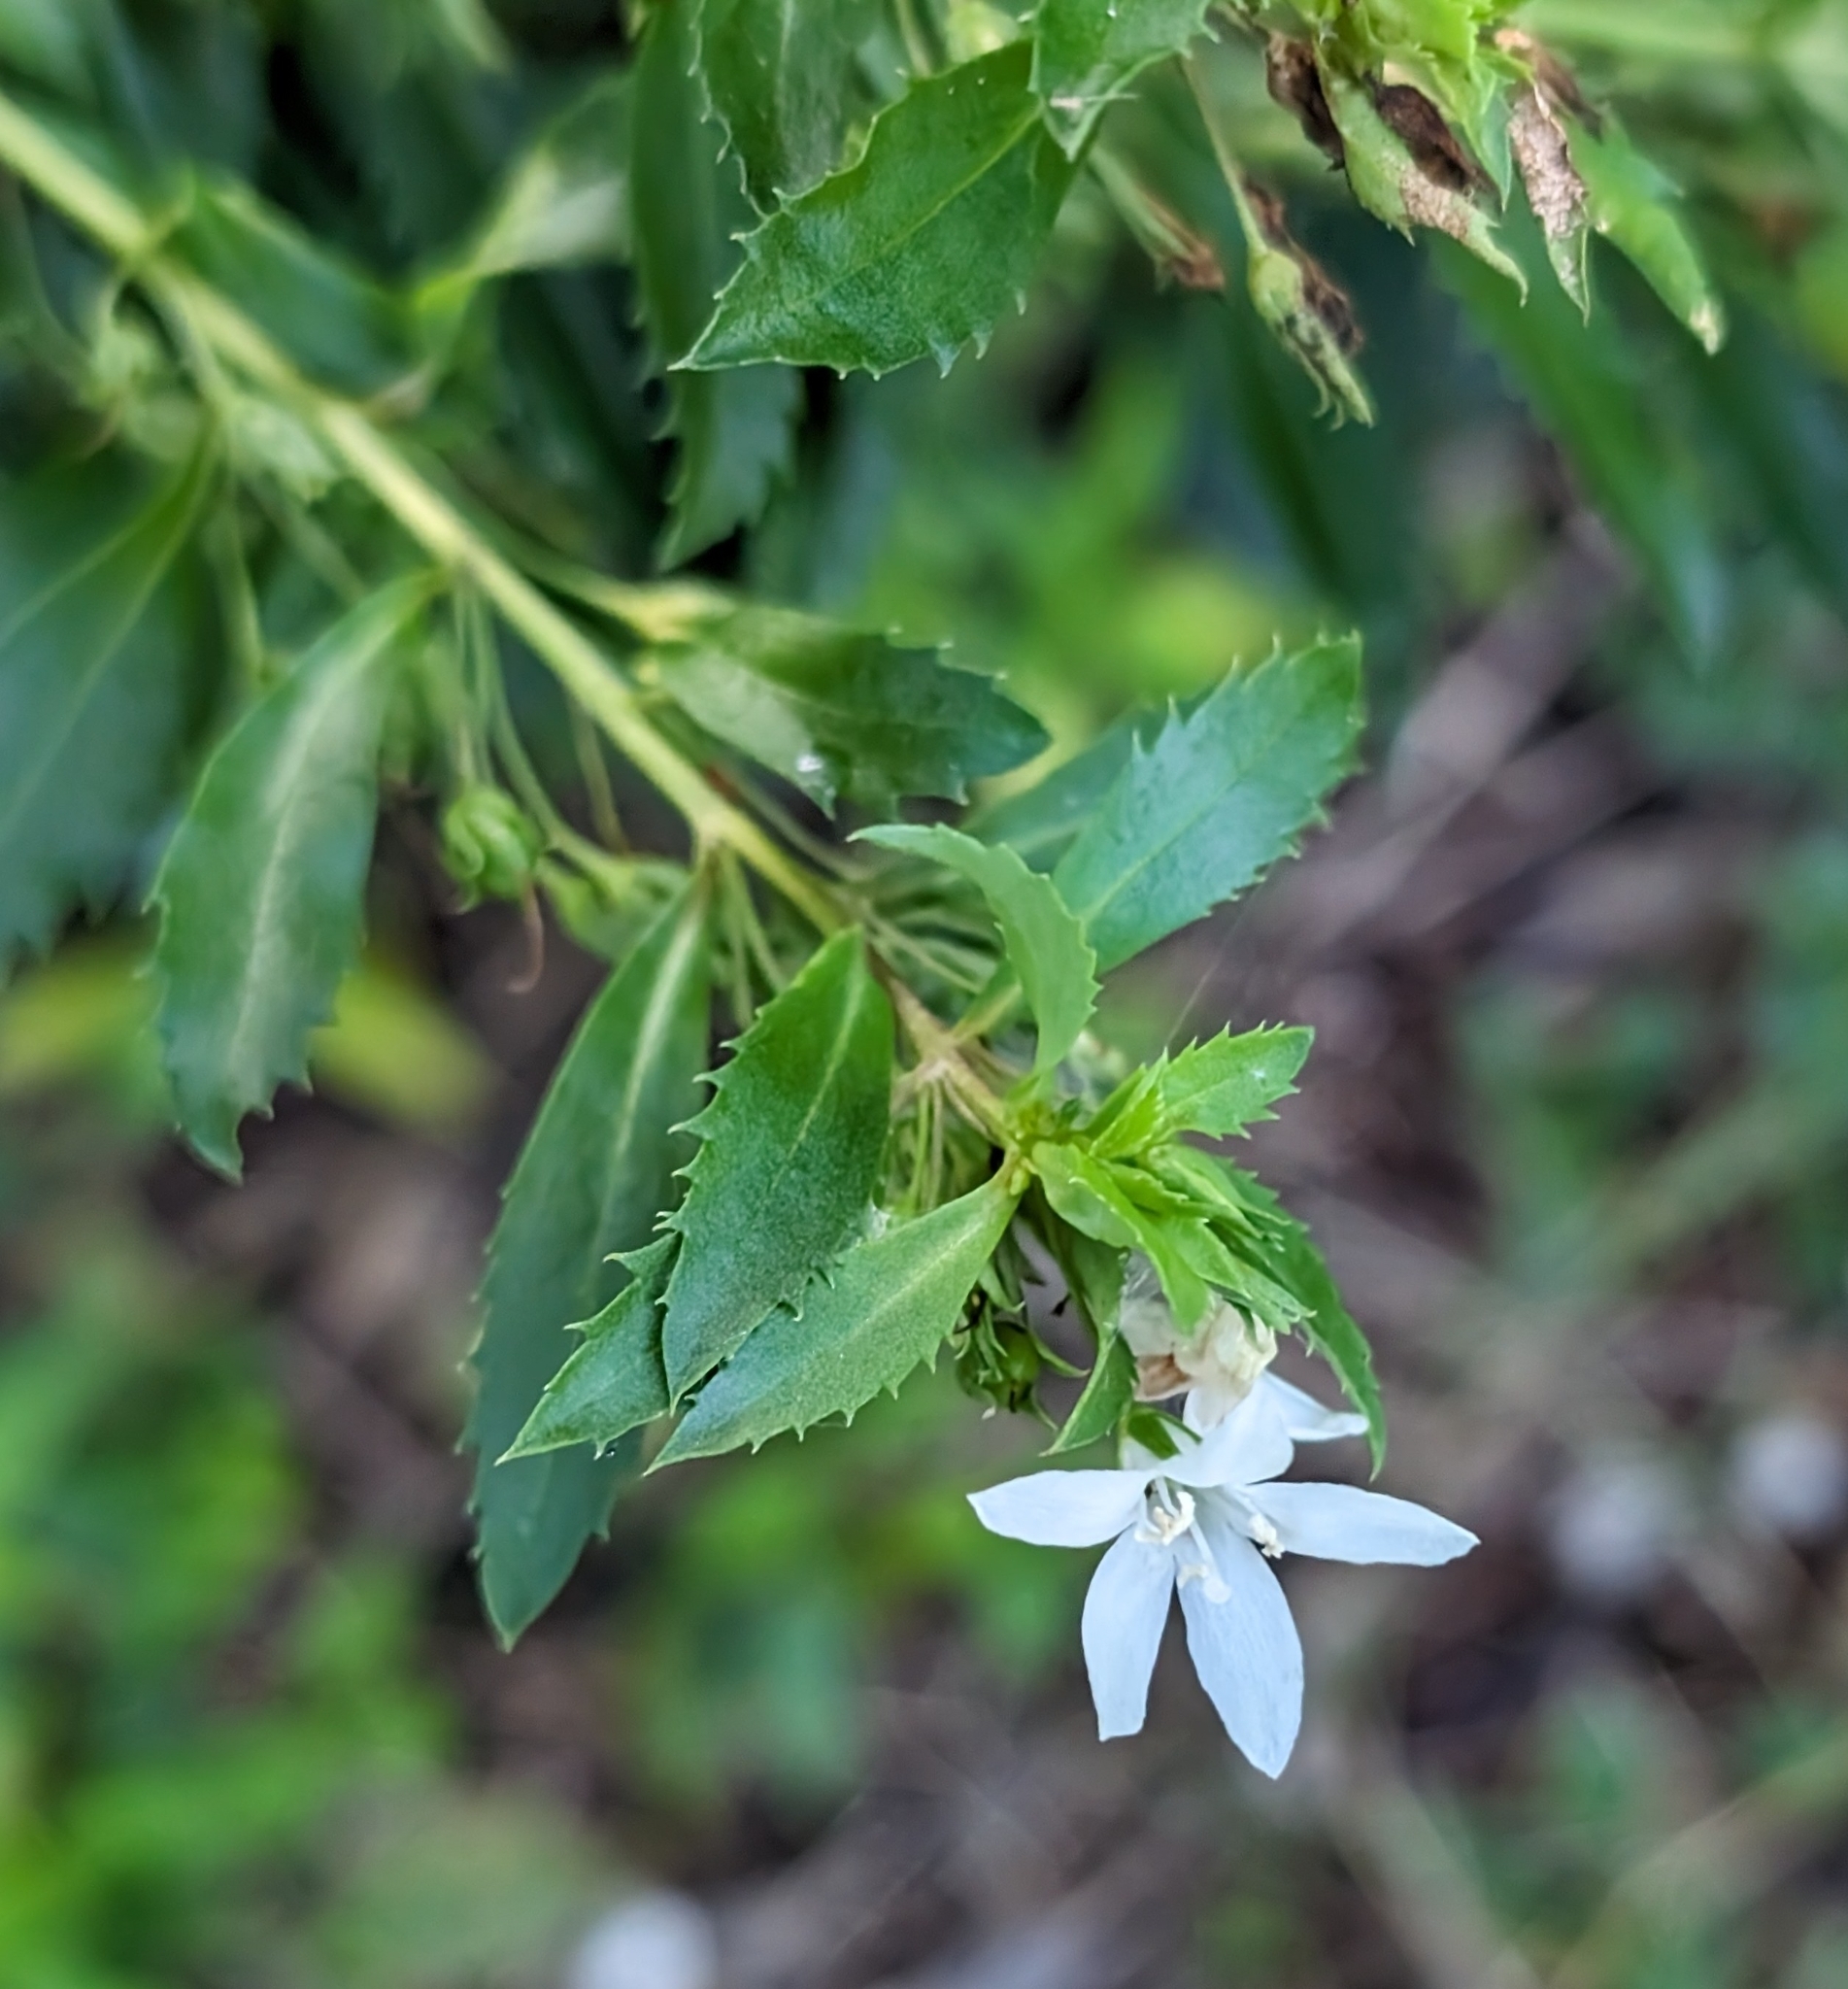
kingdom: Plantae
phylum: Tracheophyta
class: Magnoliopsida
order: Lamiales
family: Scrophulariaceae
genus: Capraria
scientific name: Capraria biflora
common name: Goatweed
